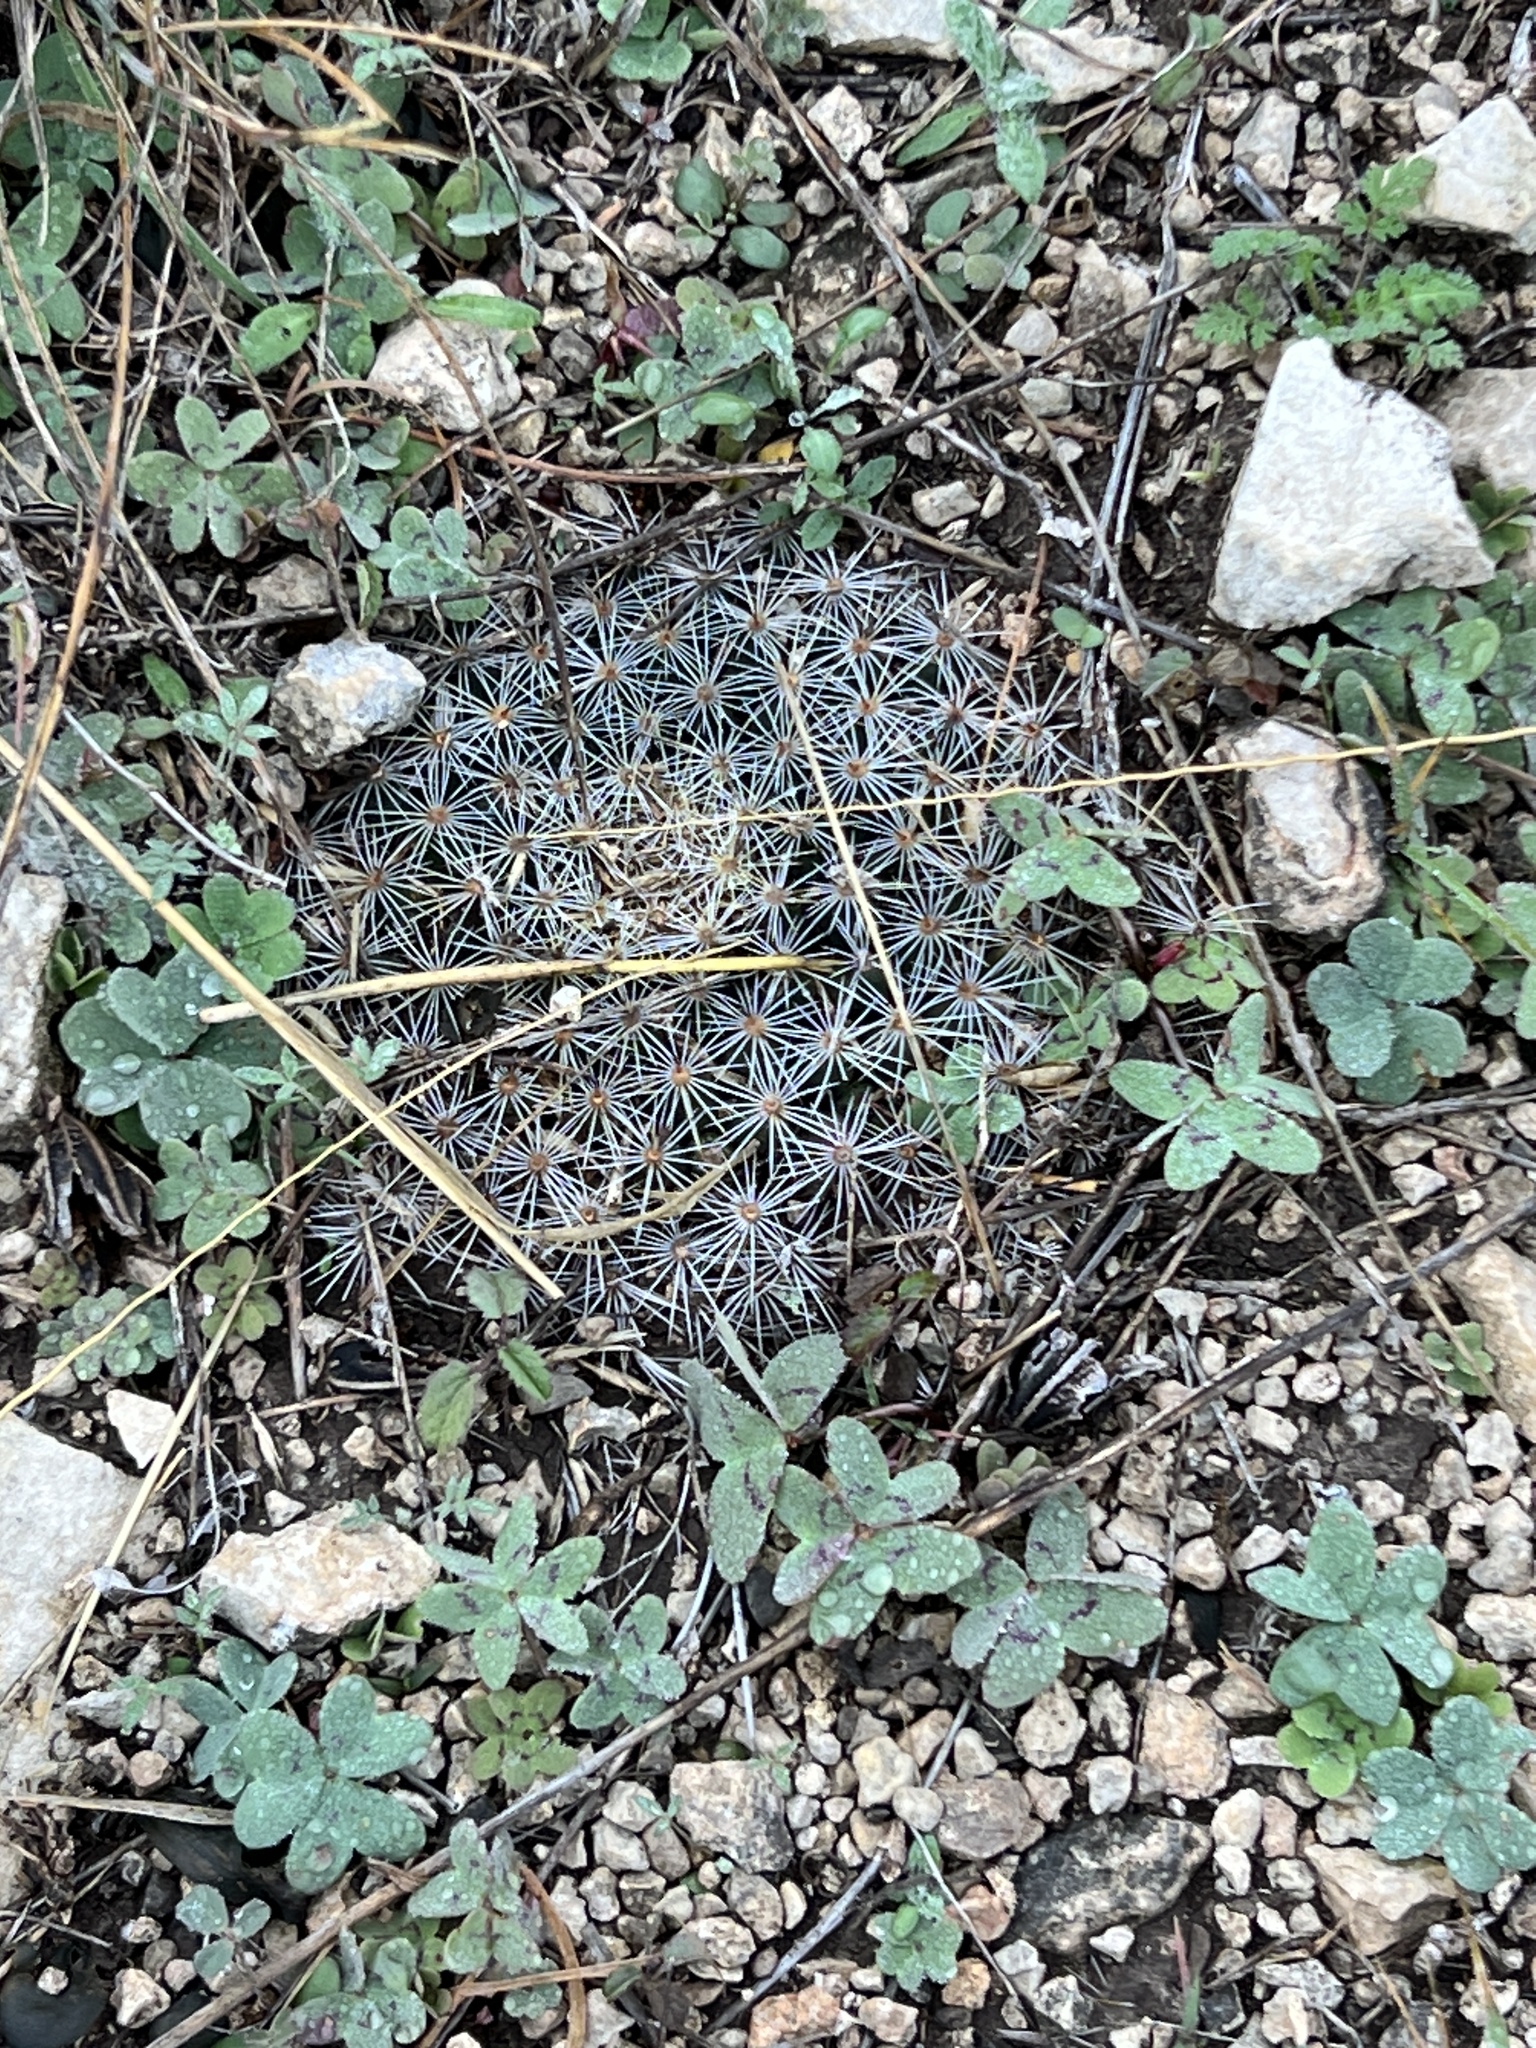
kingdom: Plantae
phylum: Tracheophyta
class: Magnoliopsida
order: Caryophyllales
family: Cactaceae
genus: Mammillaria
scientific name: Mammillaria heyderi
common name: Little nipple cactus
